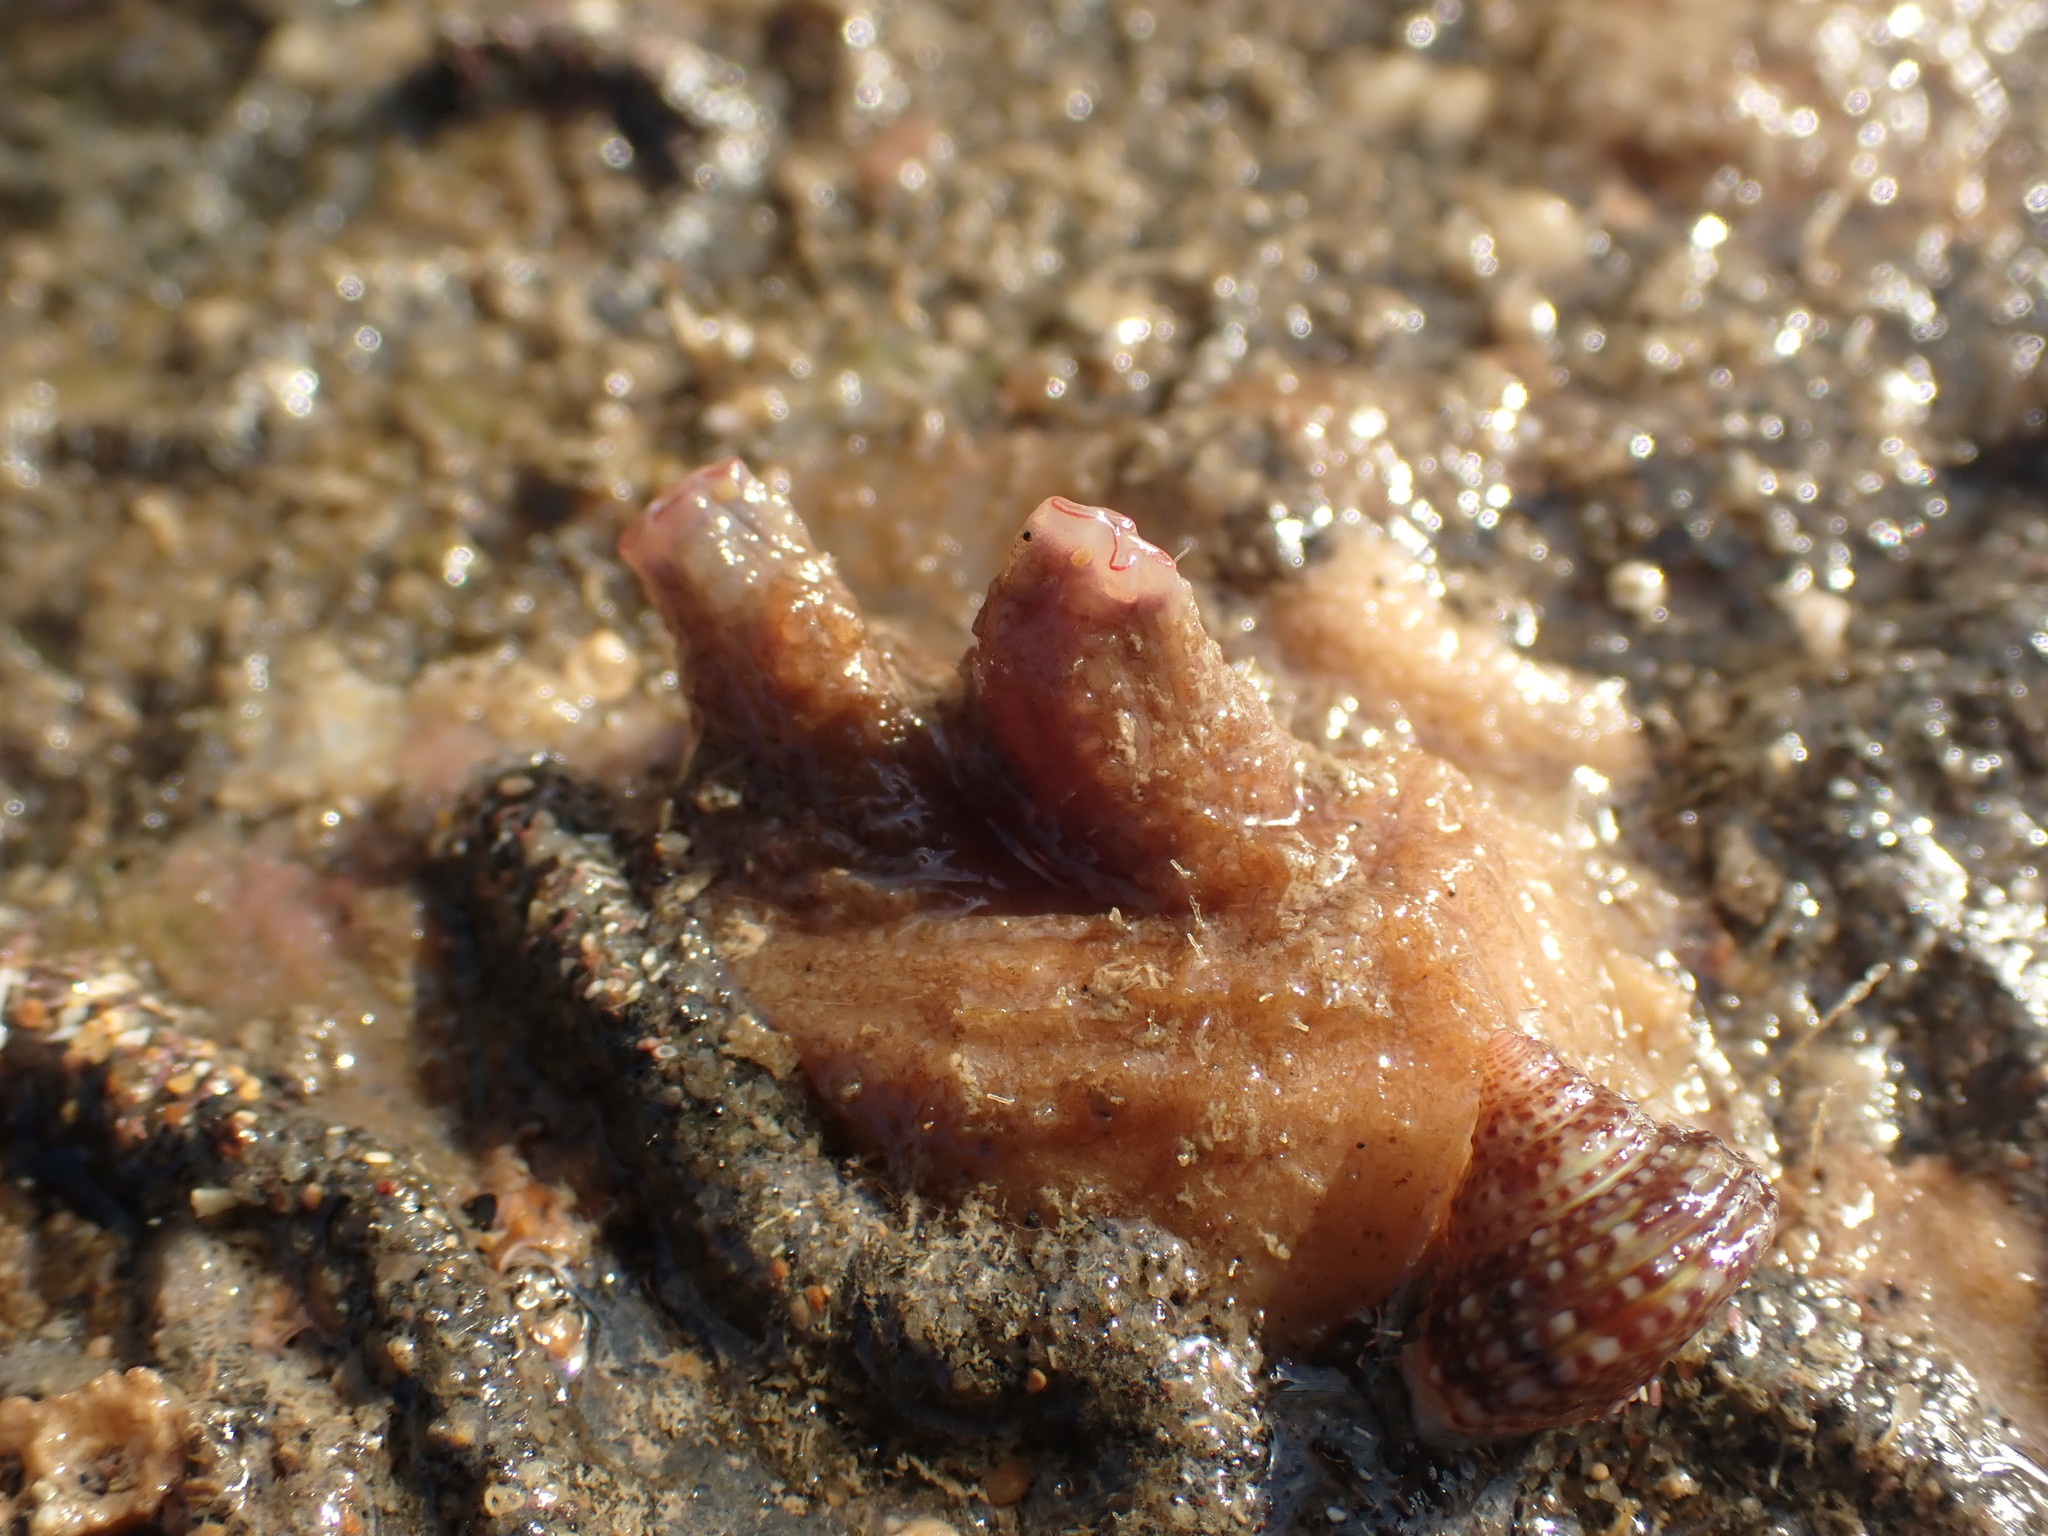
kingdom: Animalia
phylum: Mollusca
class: Gastropoda
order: Trochida
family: Calliostomatidae
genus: Maurea
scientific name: Maurea punctulata
